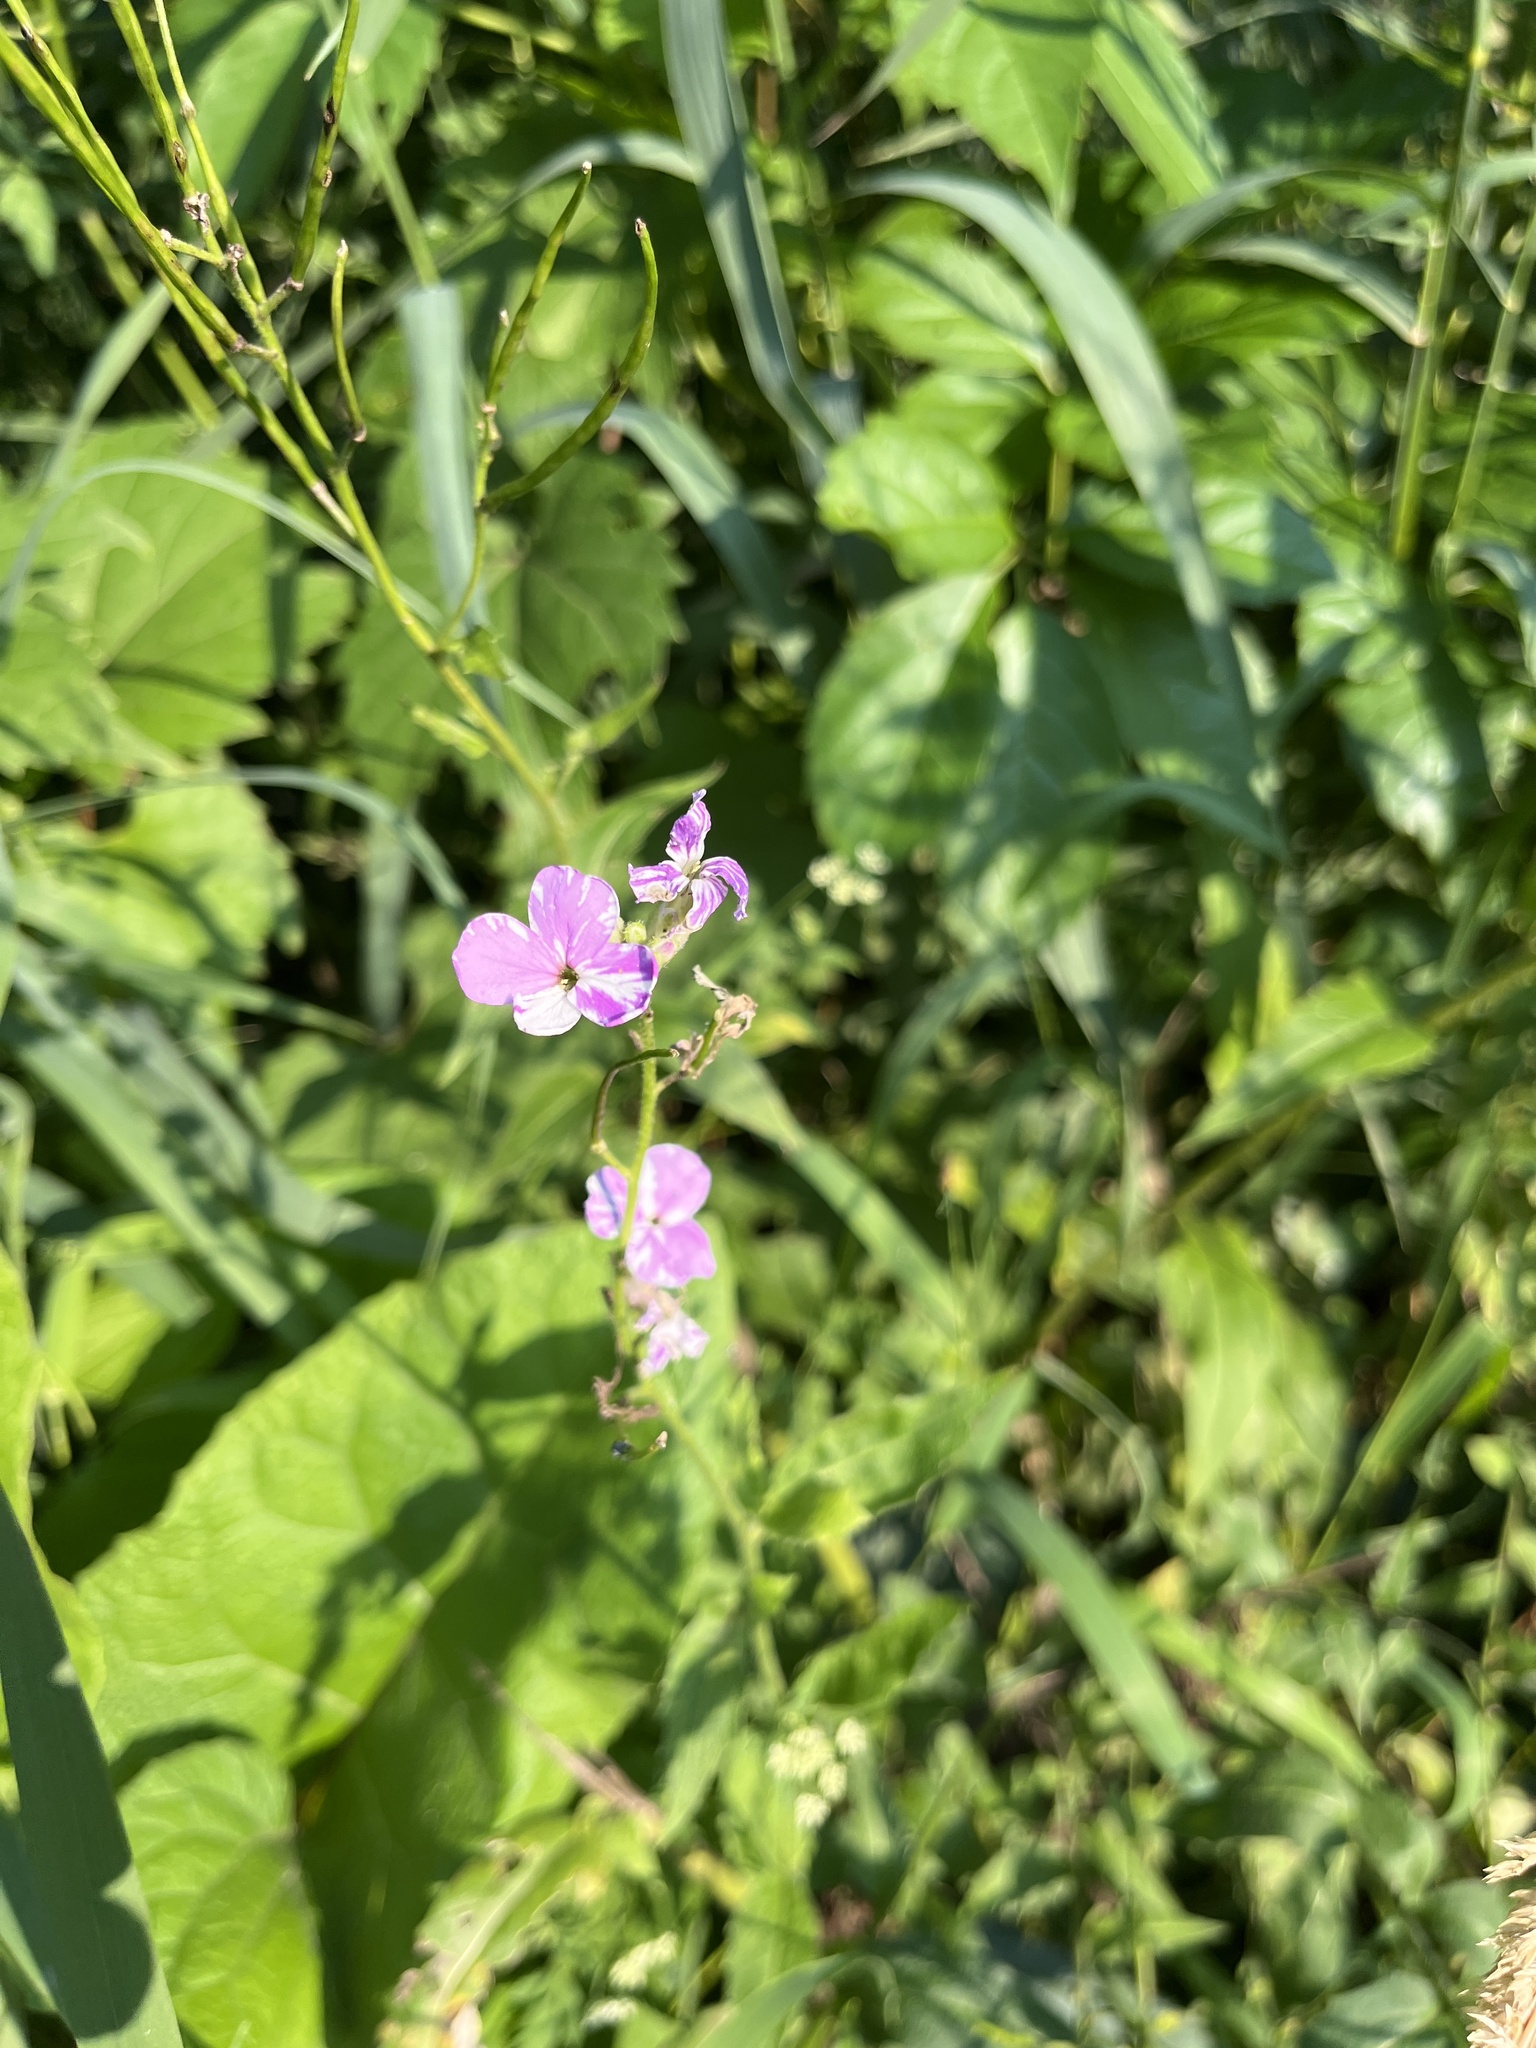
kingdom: Plantae
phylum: Tracheophyta
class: Magnoliopsida
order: Brassicales
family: Brassicaceae
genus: Hesperis
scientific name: Hesperis matronalis
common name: Dame's-violet
